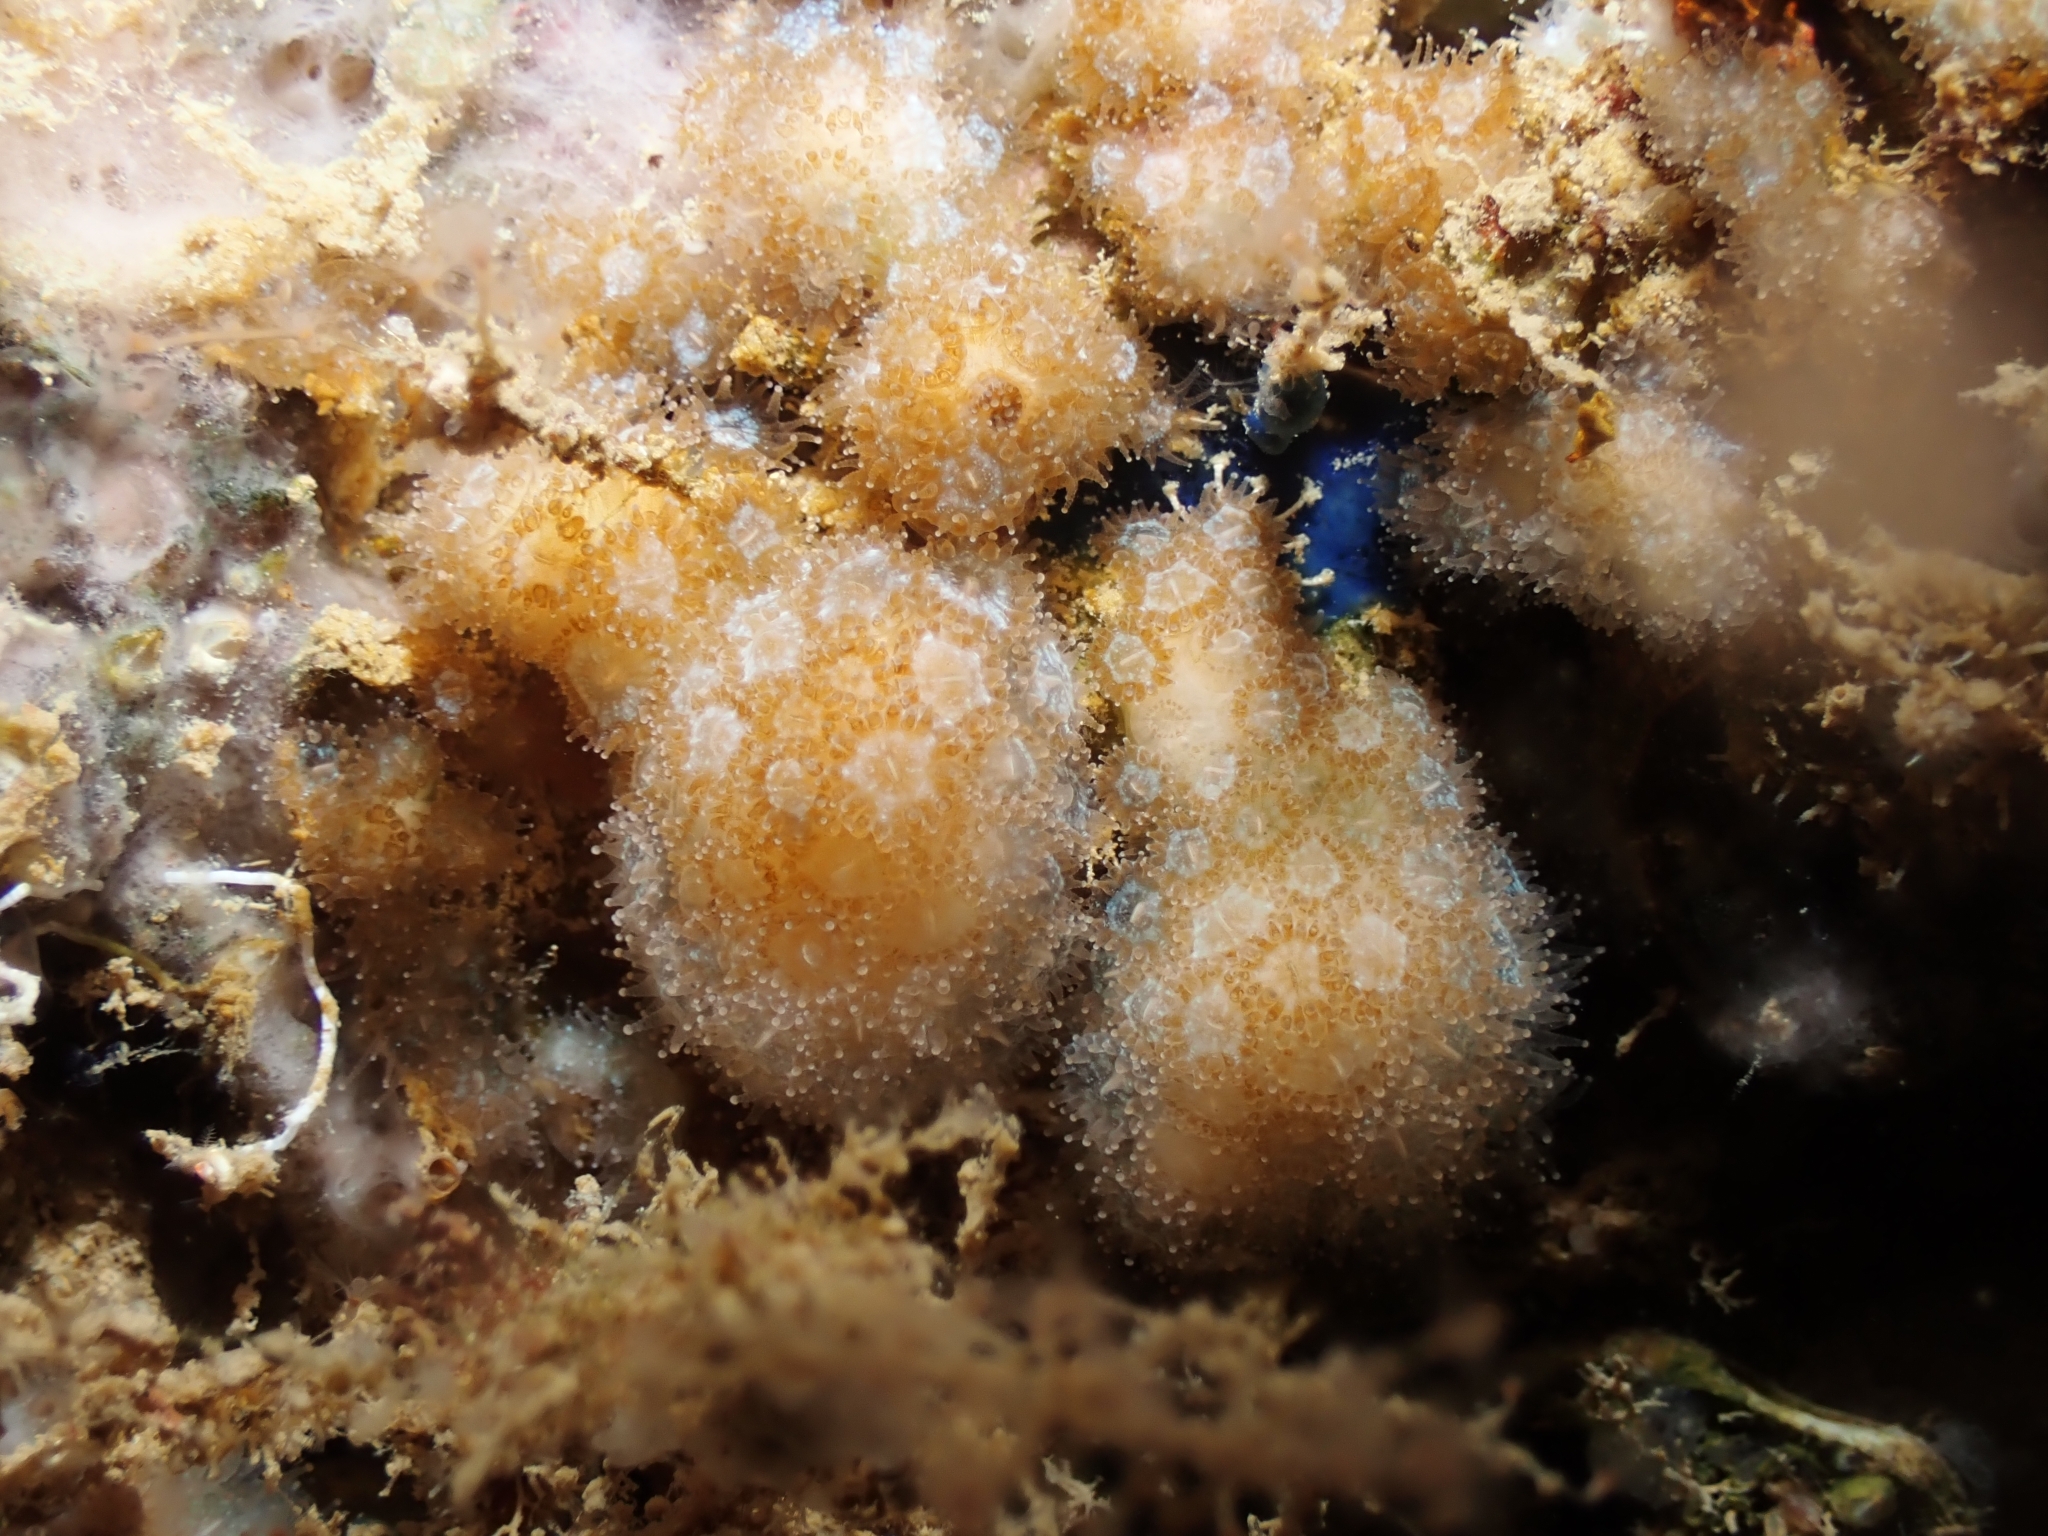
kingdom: Animalia
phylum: Cnidaria
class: Anthozoa
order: Scleractinia
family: Pocilloporidae
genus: Madracis
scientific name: Madracis pharensis
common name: Star coral
